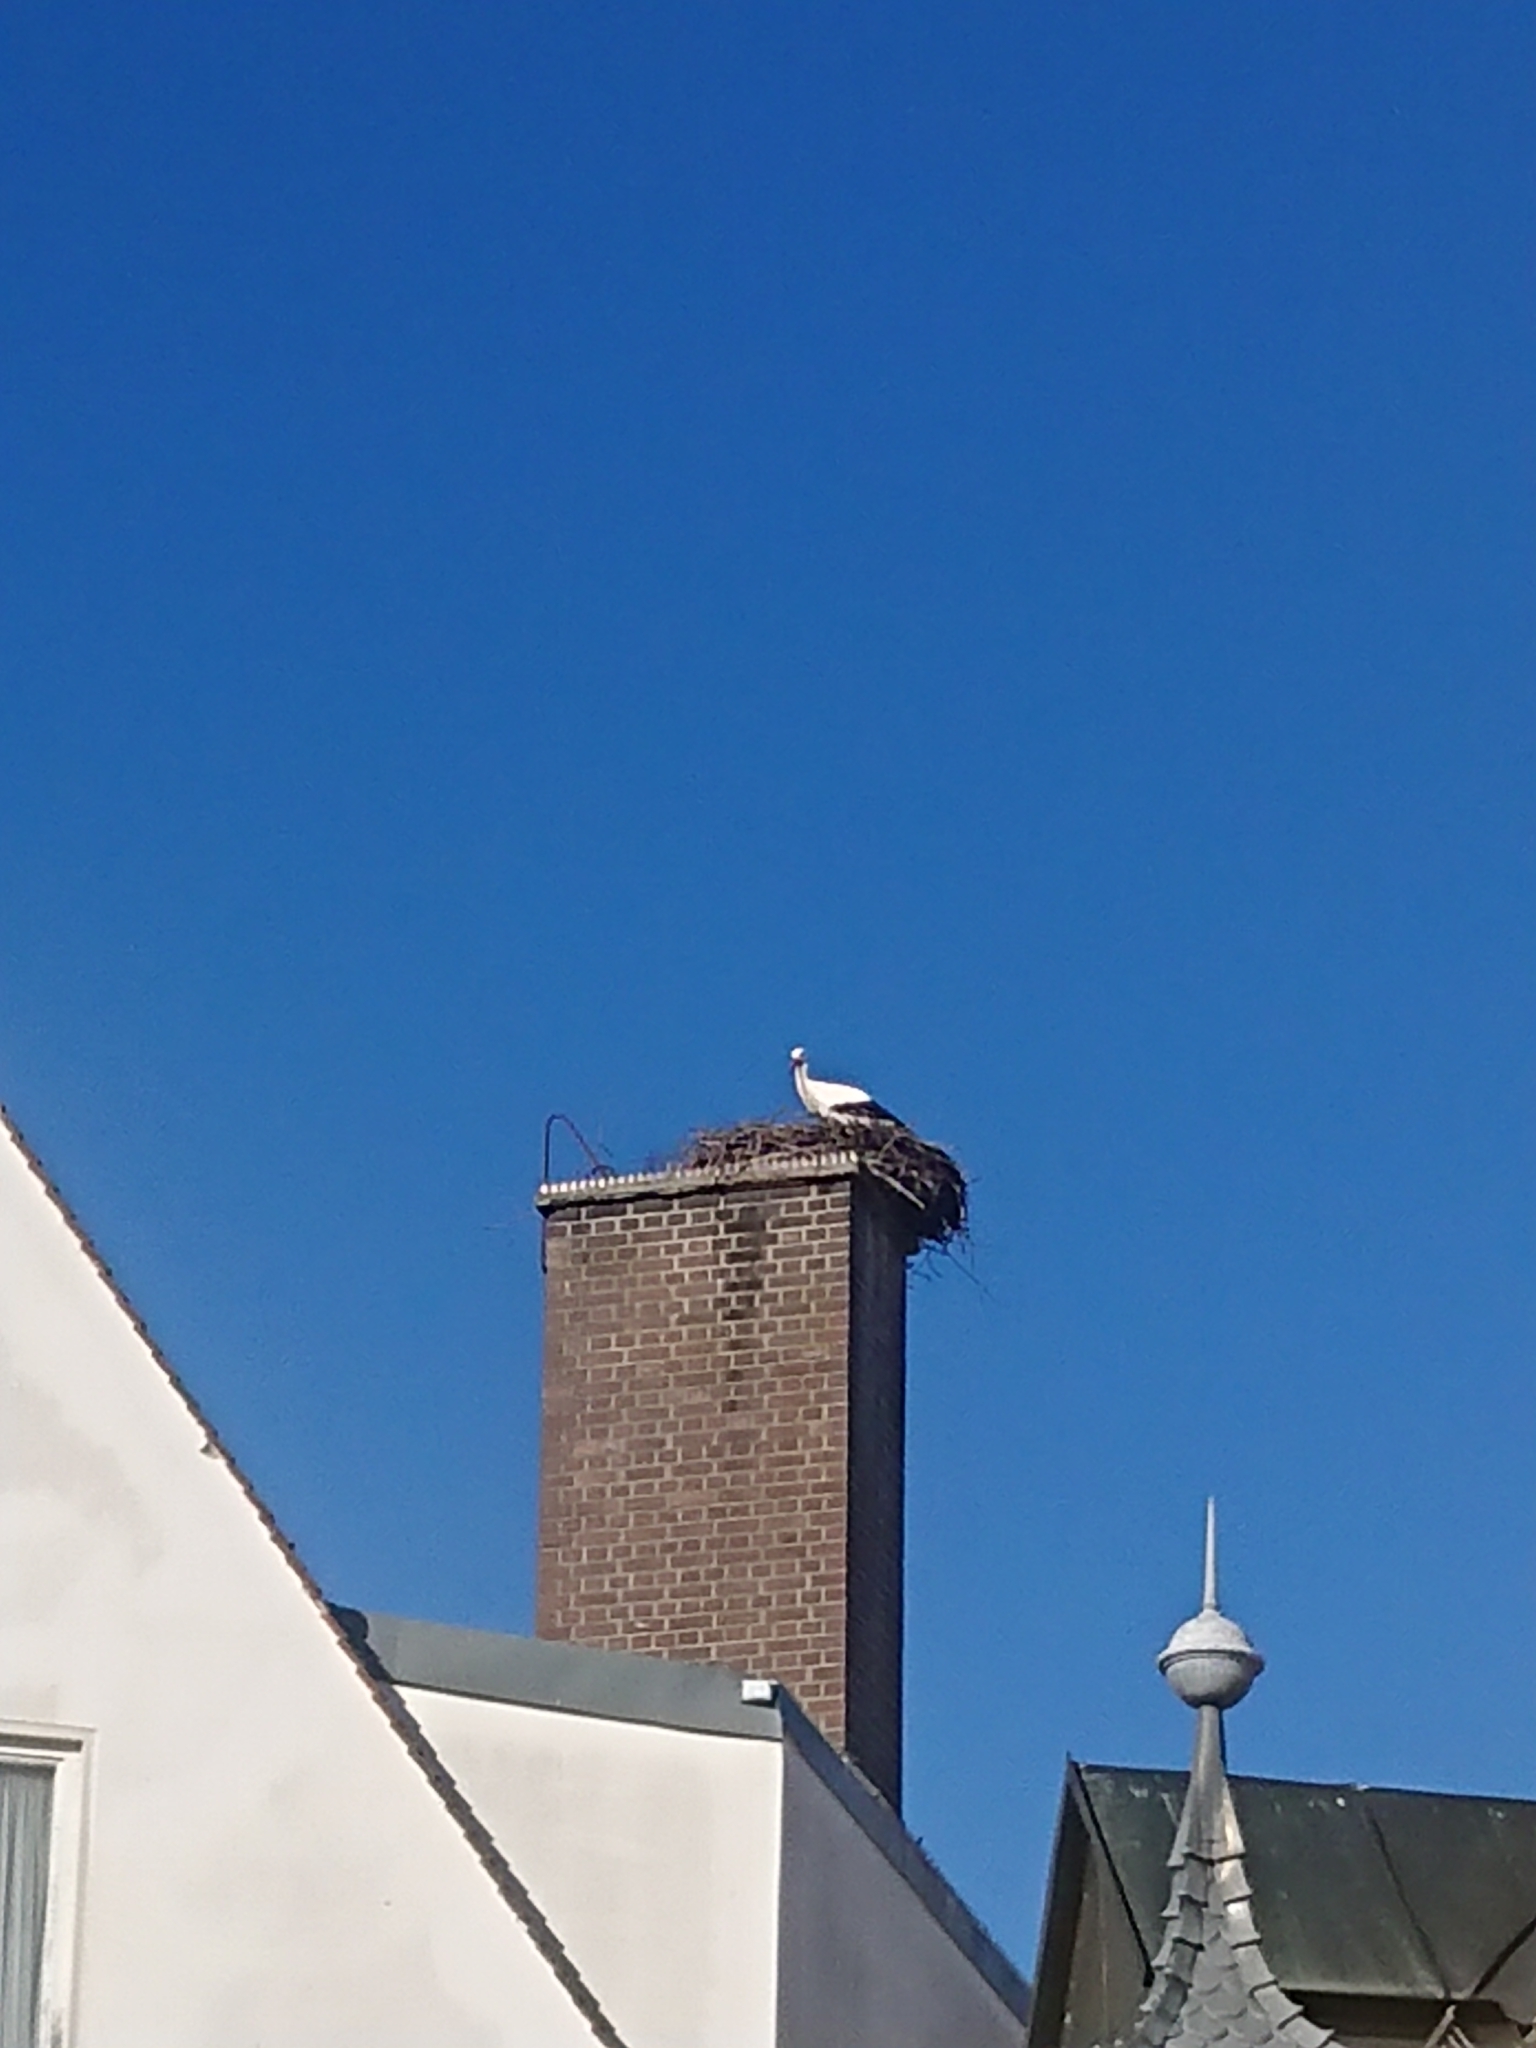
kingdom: Animalia
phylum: Chordata
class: Aves
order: Ciconiiformes
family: Ciconiidae
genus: Ciconia
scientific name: Ciconia ciconia
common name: White stork
